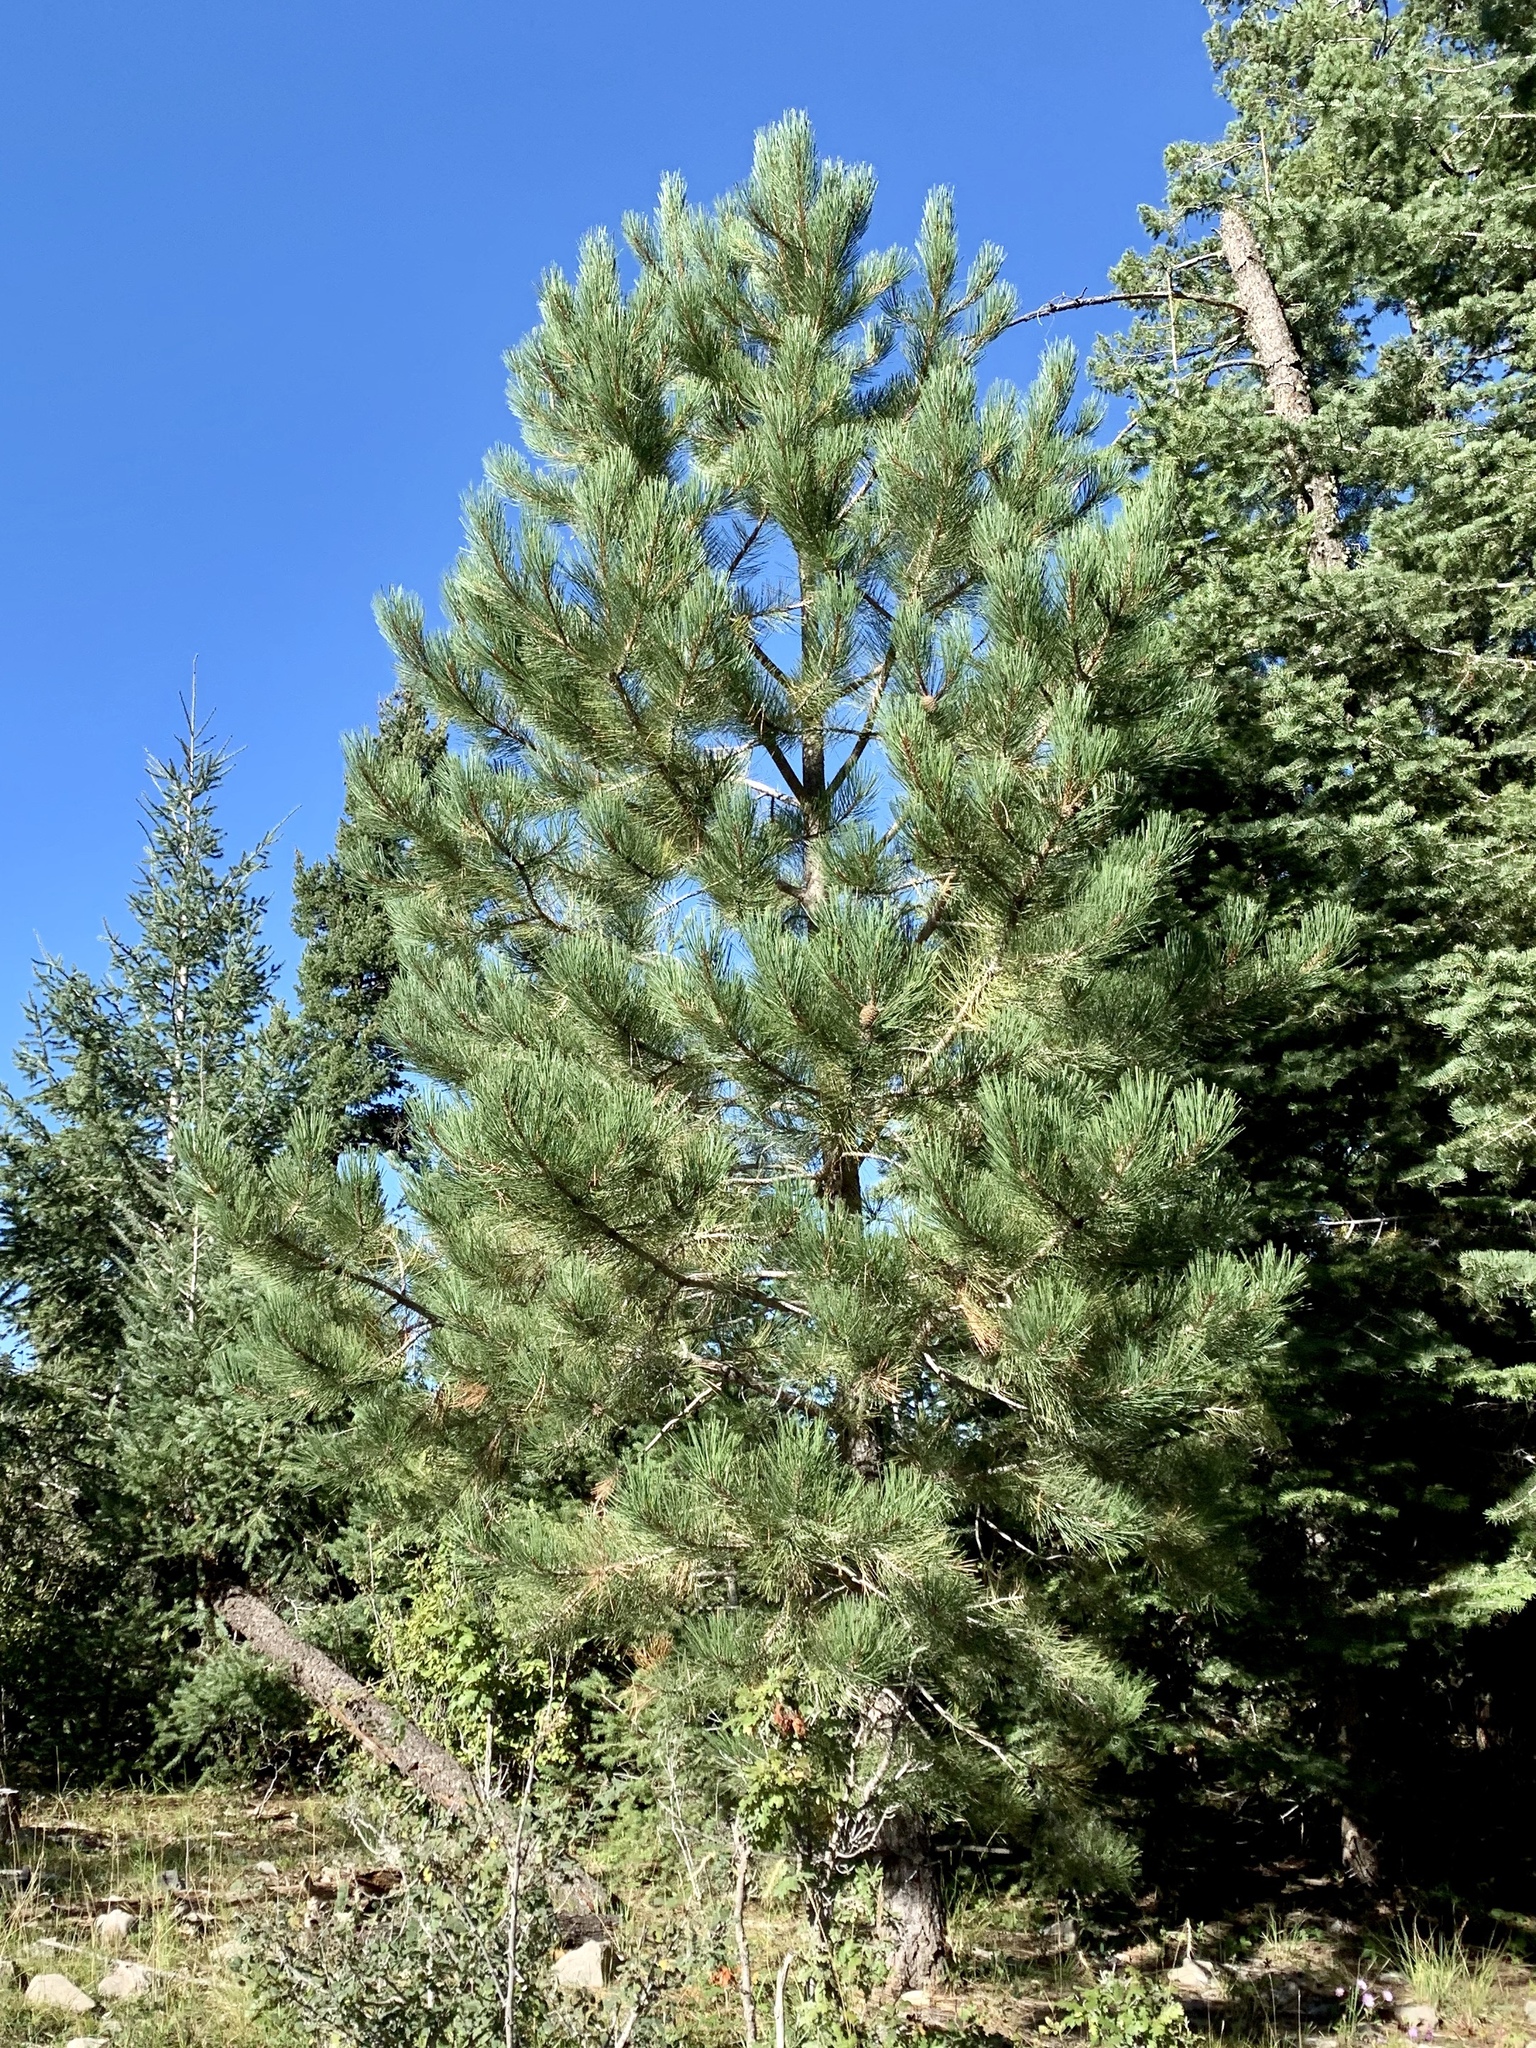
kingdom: Plantae
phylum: Tracheophyta
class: Pinopsida
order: Pinales
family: Pinaceae
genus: Pinus
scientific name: Pinus strobiformis
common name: Southwestern white pine
